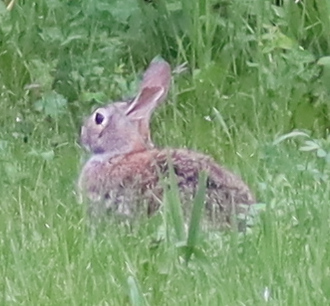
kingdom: Animalia
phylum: Chordata
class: Mammalia
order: Lagomorpha
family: Leporidae
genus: Sylvilagus
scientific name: Sylvilagus floridanus
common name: Eastern cottontail
